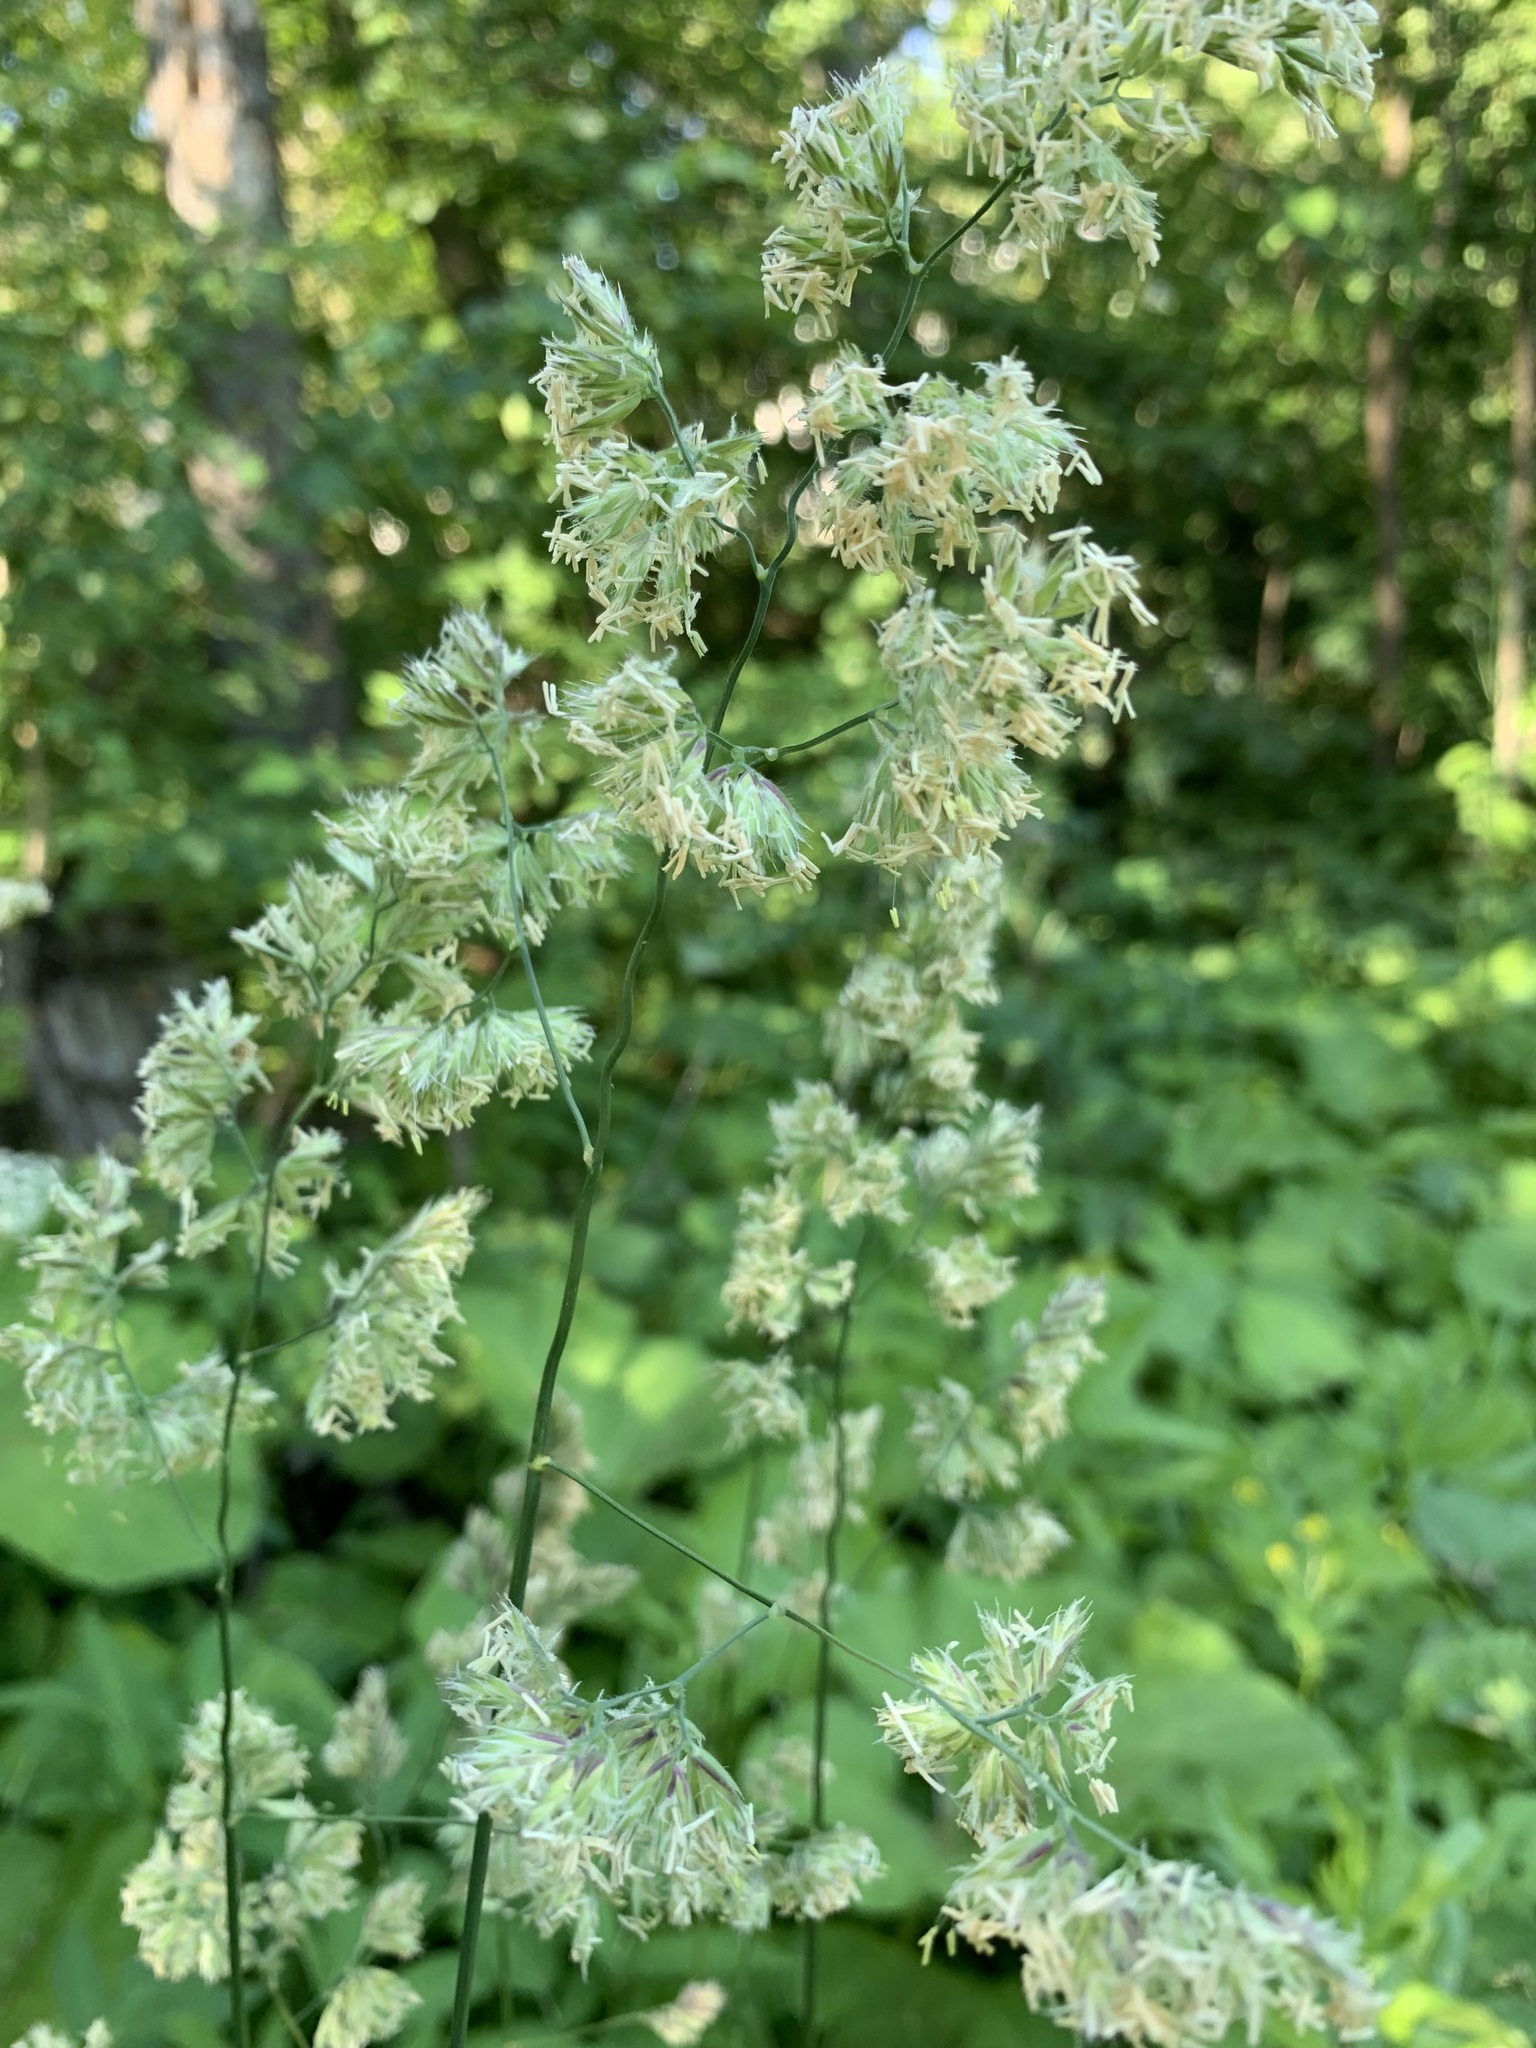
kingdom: Plantae
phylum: Tracheophyta
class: Liliopsida
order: Poales
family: Poaceae
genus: Dactylis
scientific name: Dactylis glomerata
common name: Orchardgrass
